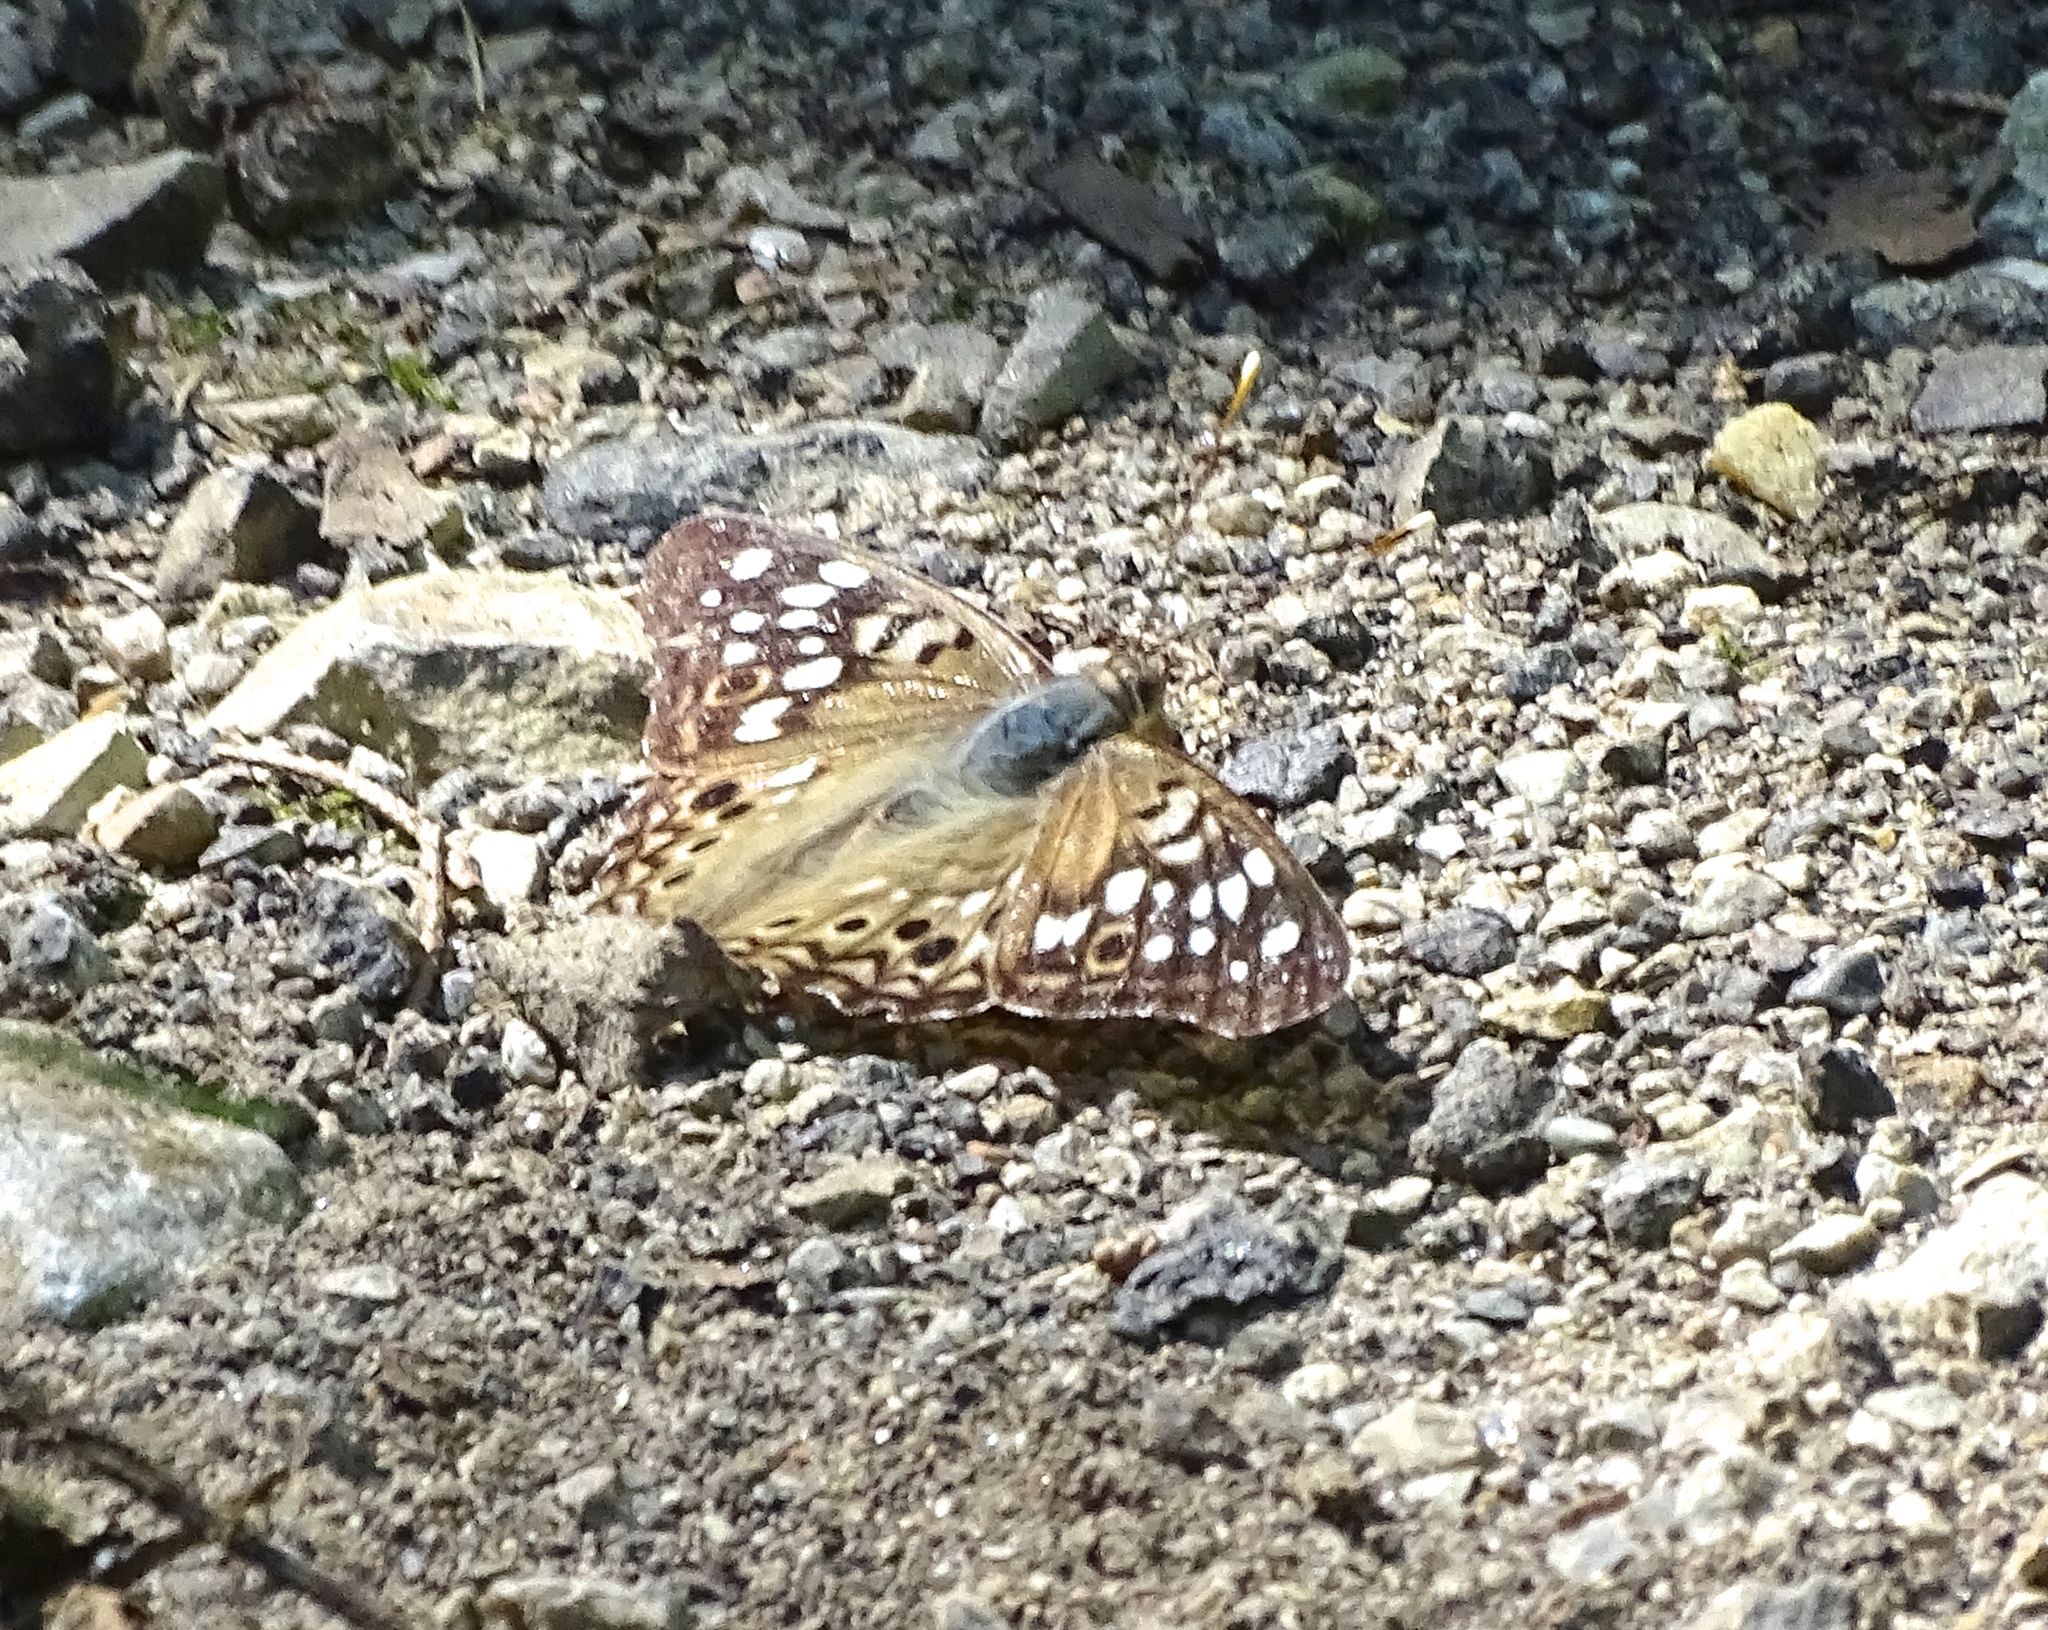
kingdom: Animalia
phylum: Arthropoda
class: Insecta
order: Lepidoptera
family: Nymphalidae
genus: Asterocampa
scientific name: Asterocampa celtis
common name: Hackberry emperor
